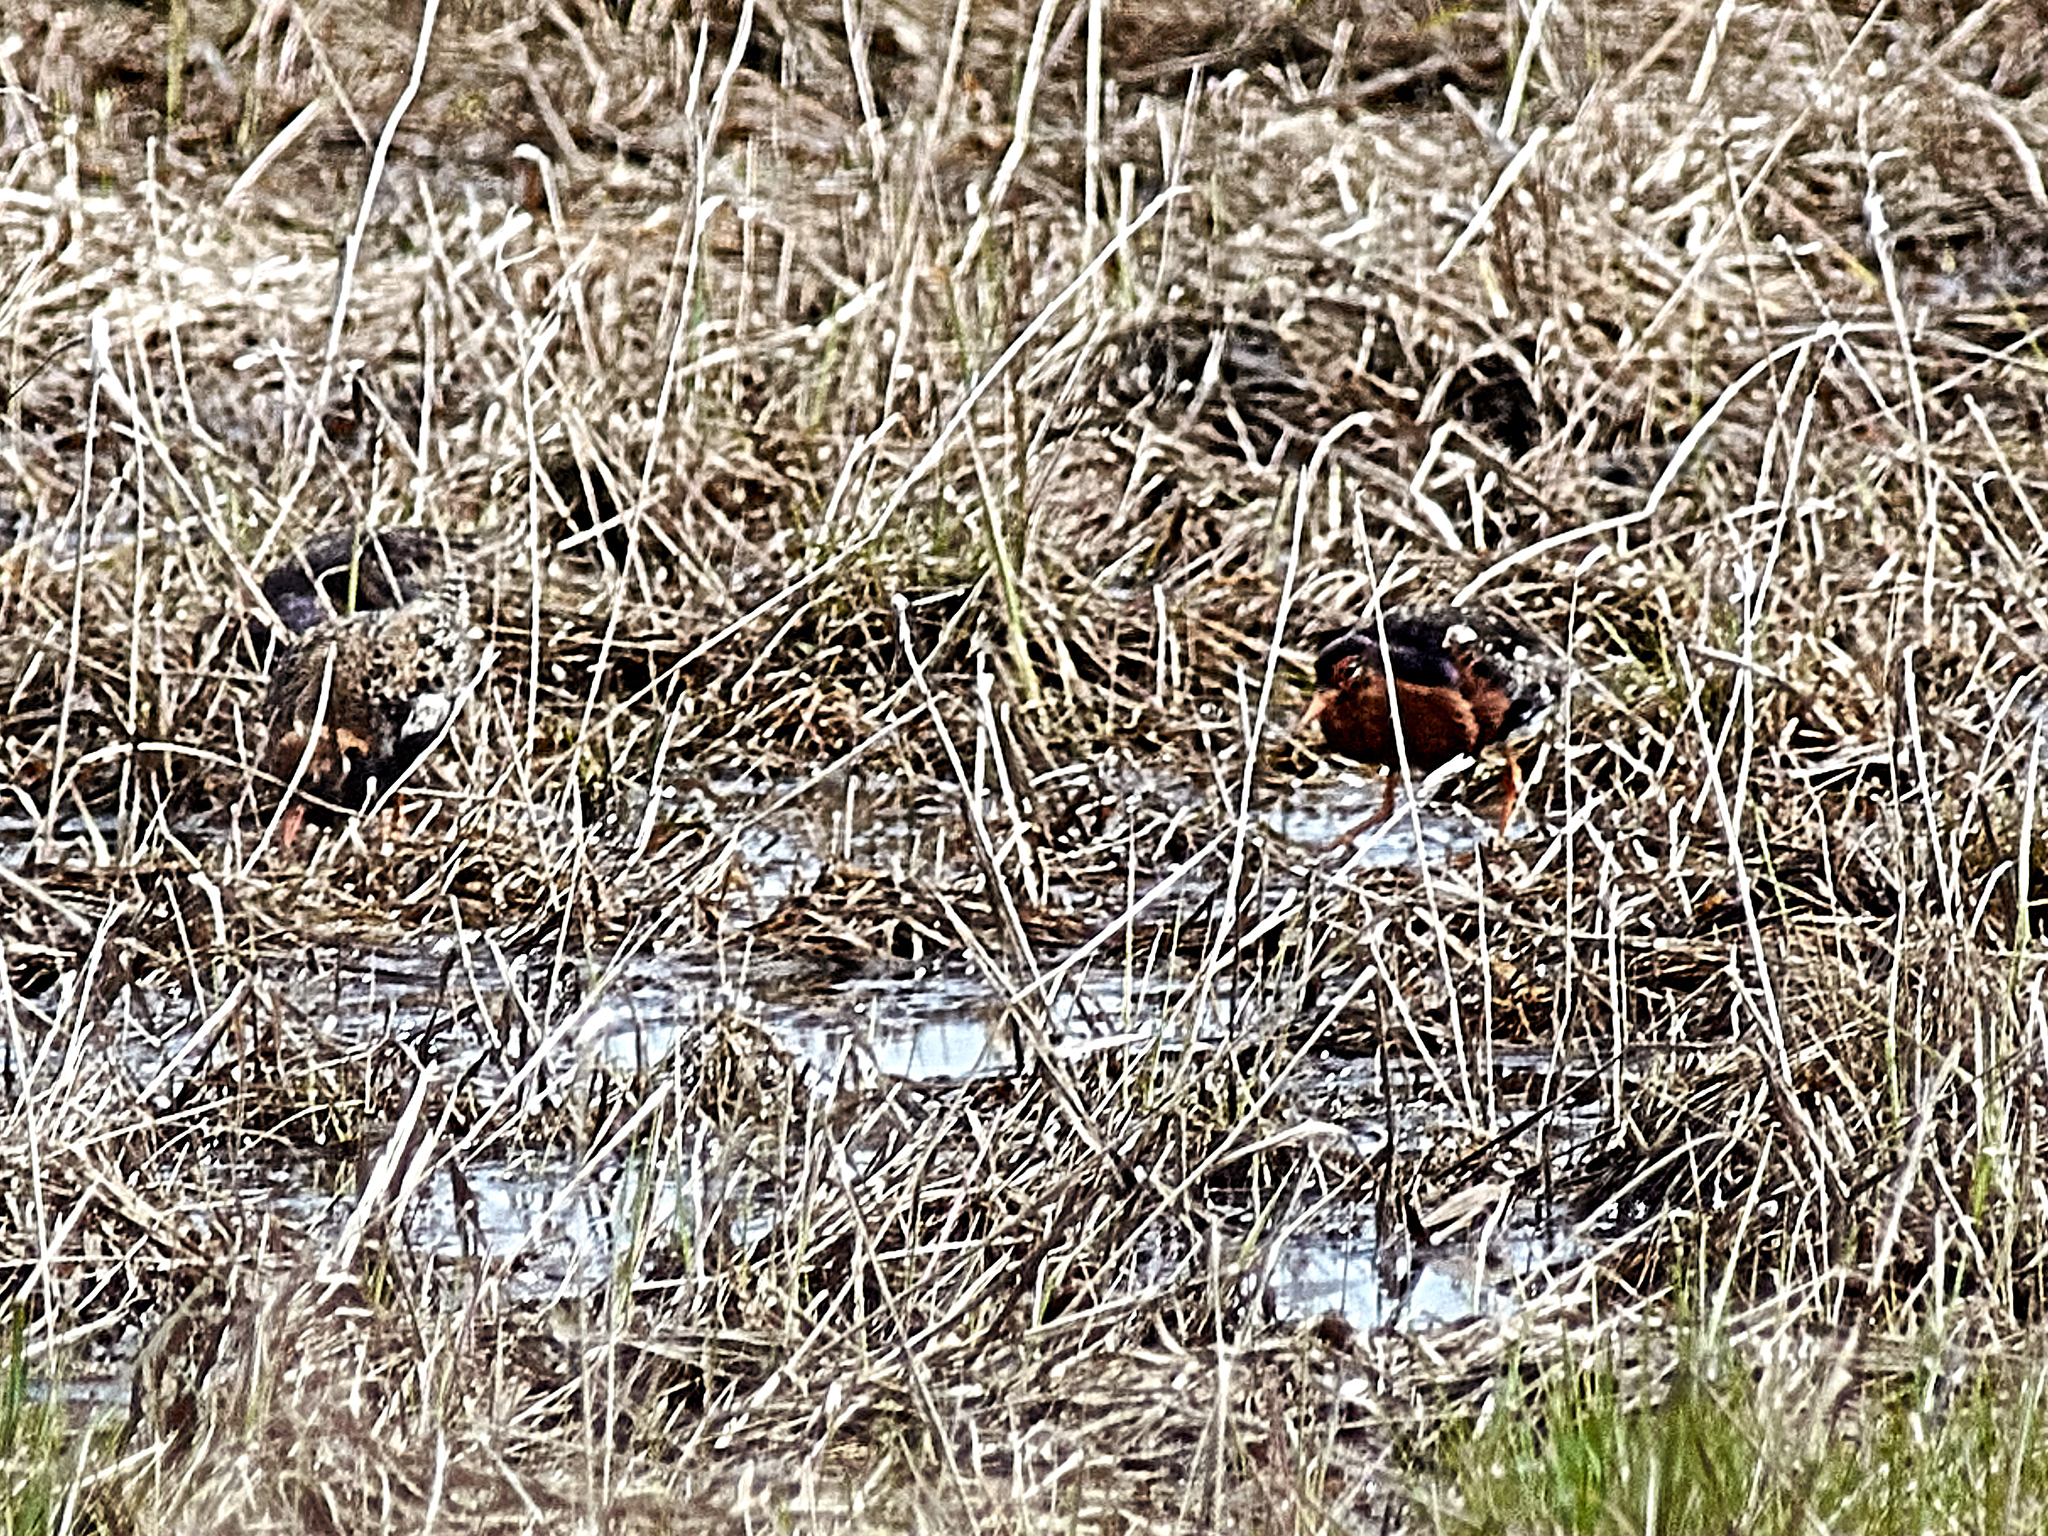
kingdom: Animalia
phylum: Chordata
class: Aves
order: Charadriiformes
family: Scolopacidae
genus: Calidris
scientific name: Calidris pugnax
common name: Ruff
